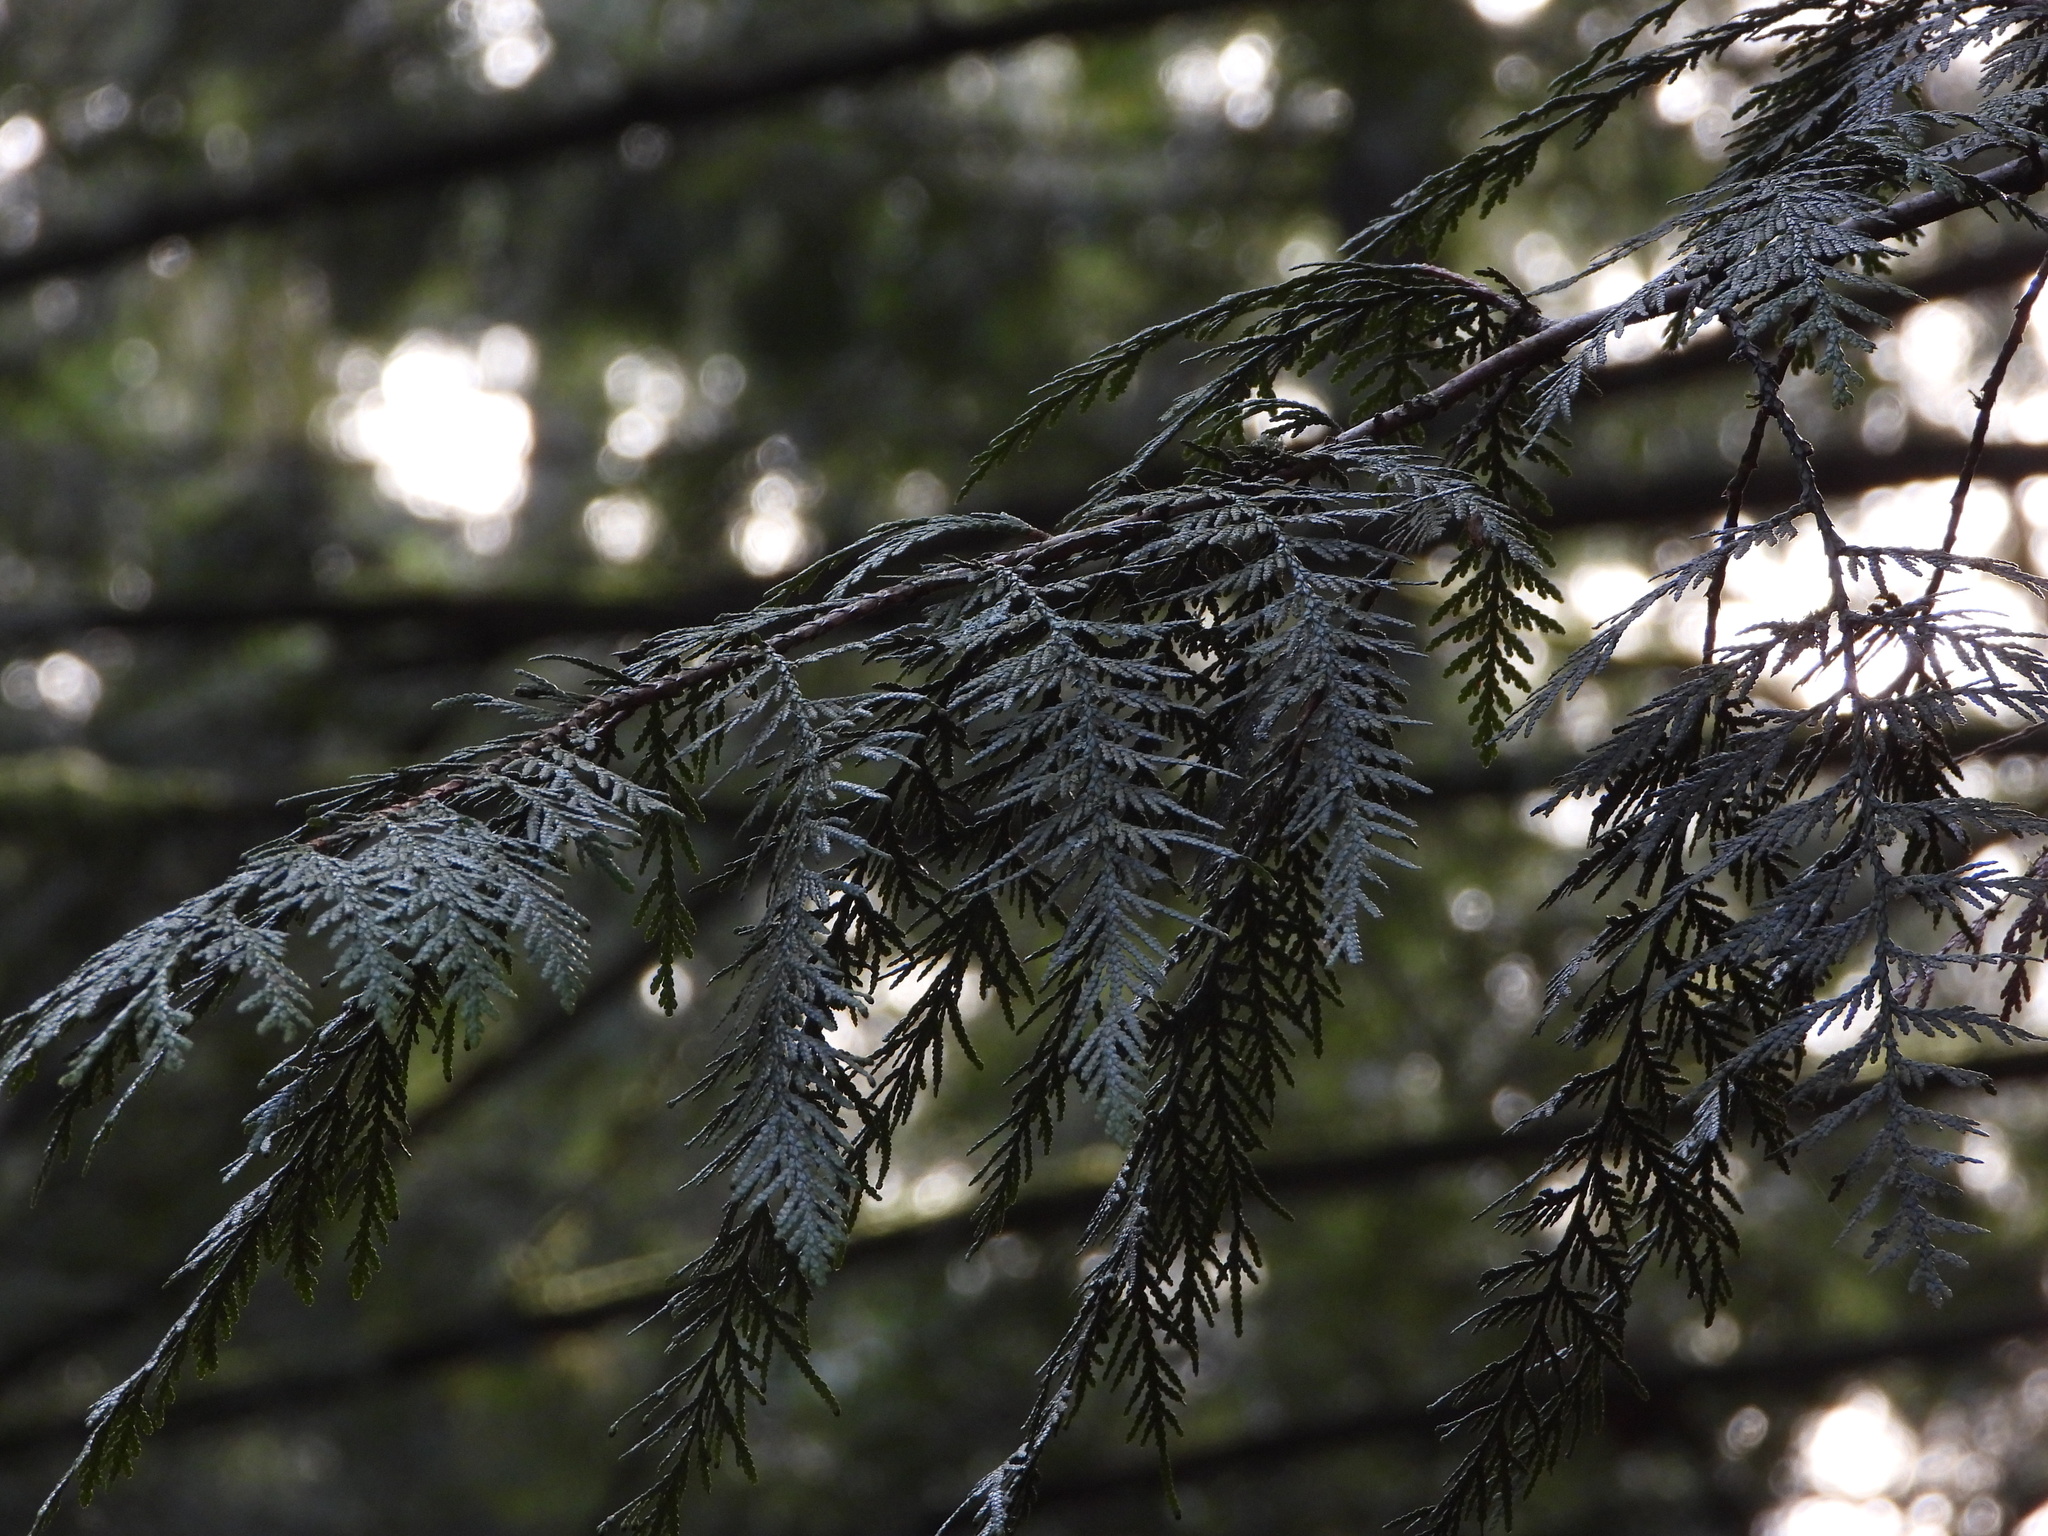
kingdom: Plantae
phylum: Tracheophyta
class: Pinopsida
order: Pinales
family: Cupressaceae
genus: Thuja
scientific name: Thuja plicata
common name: Western red-cedar
